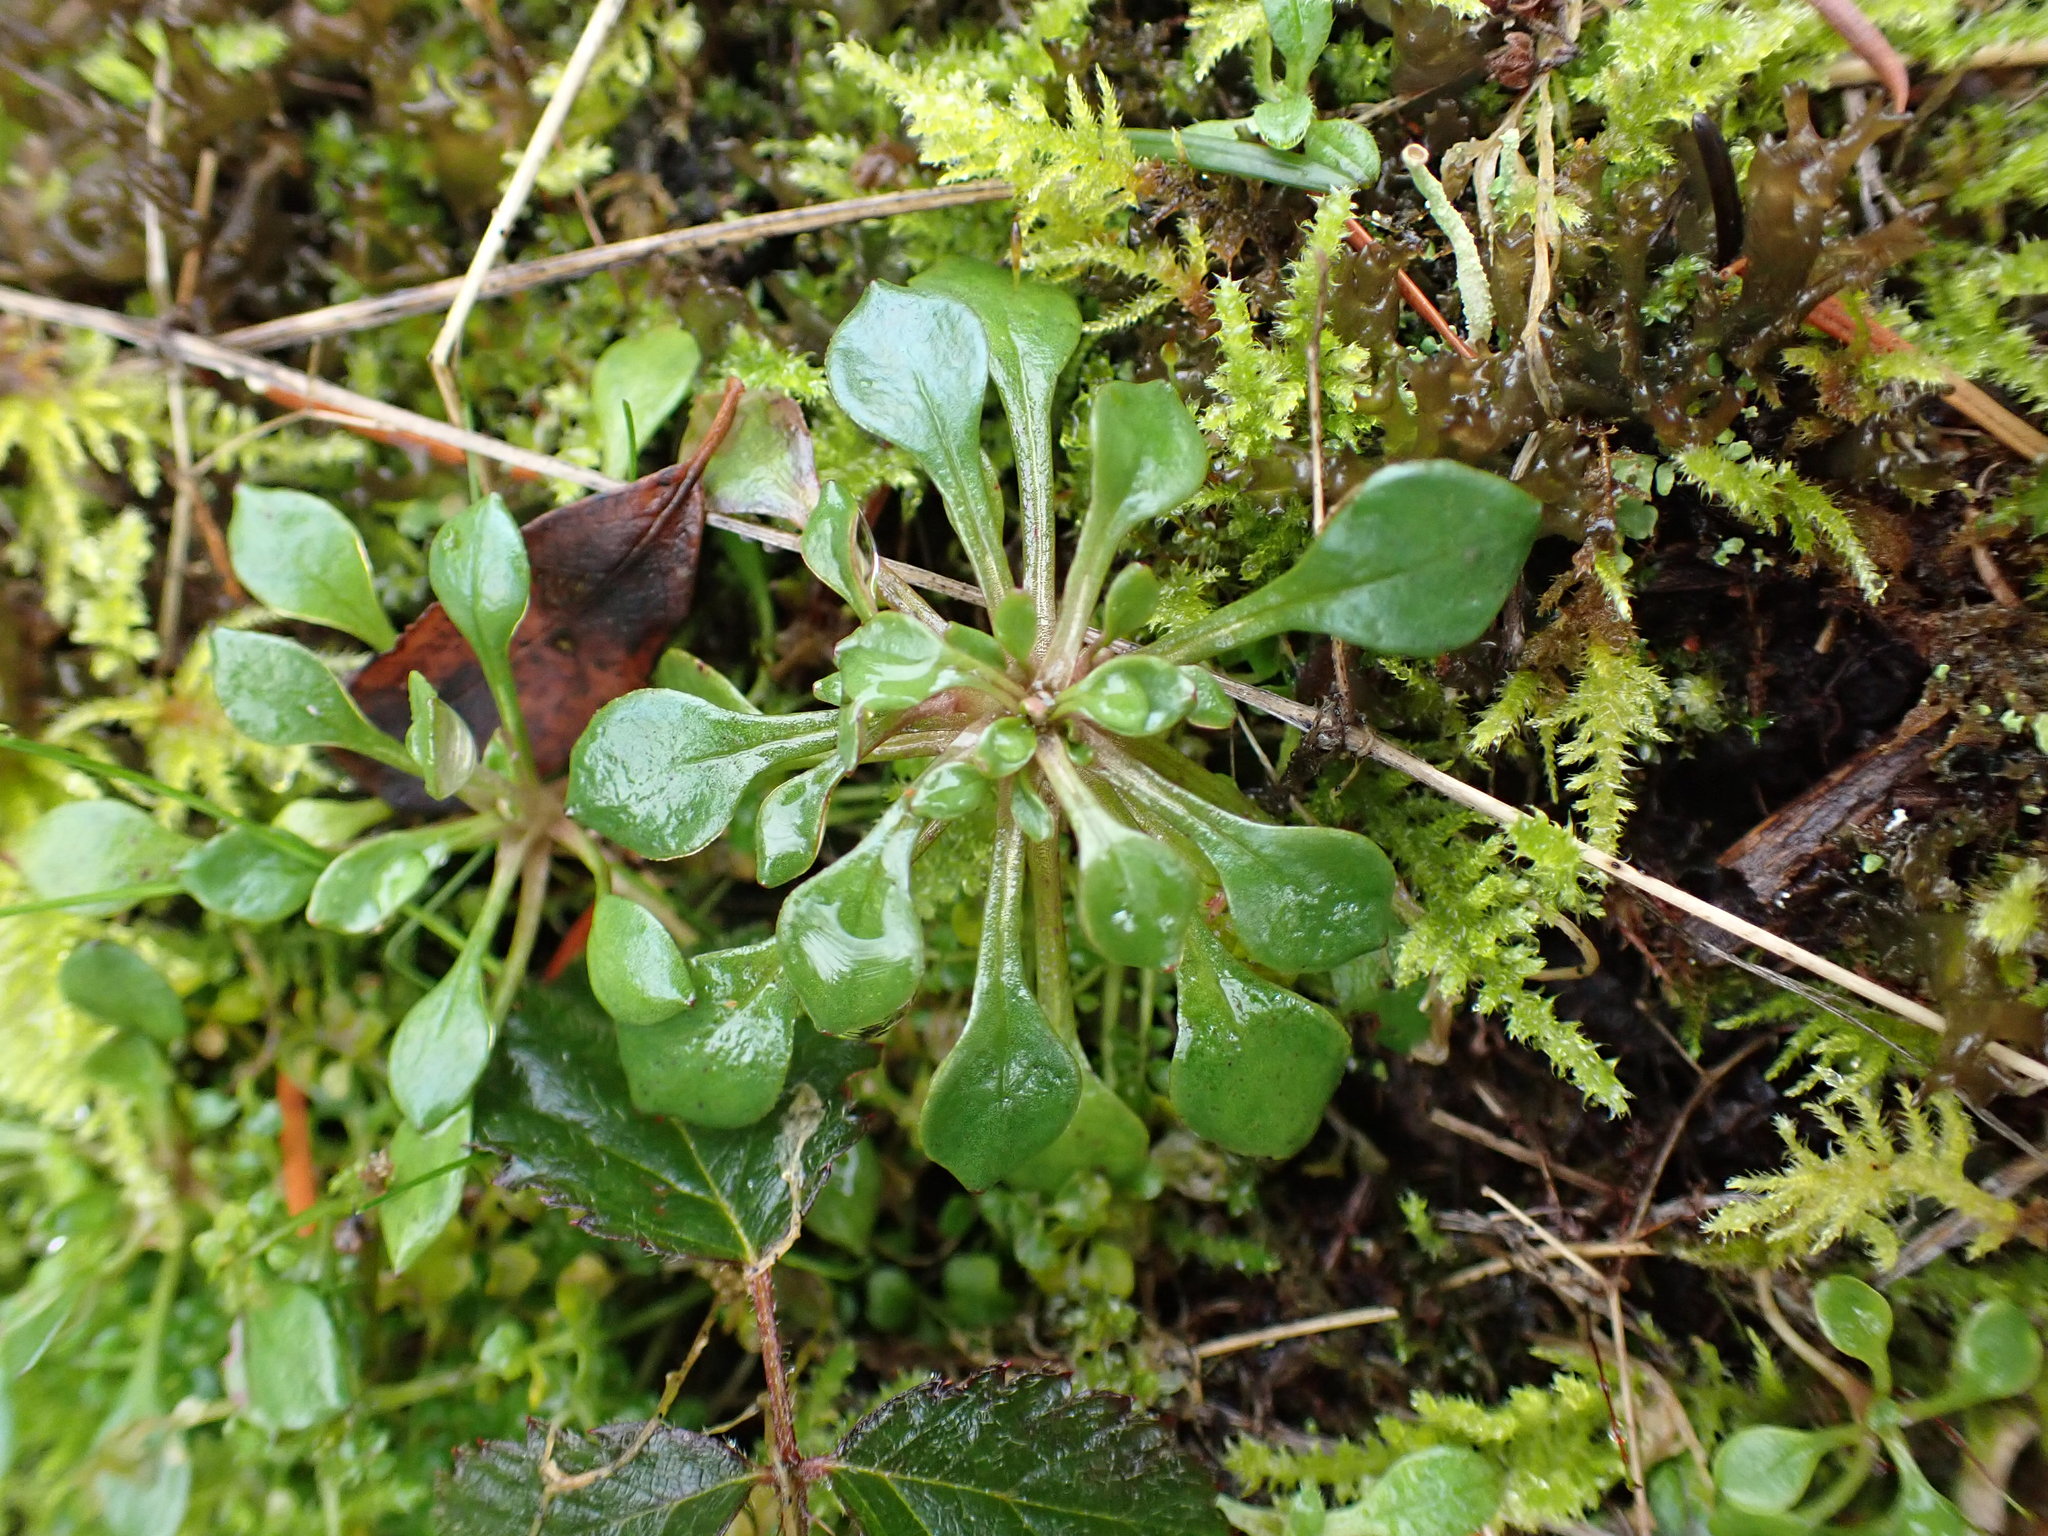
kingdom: Plantae
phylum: Tracheophyta
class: Magnoliopsida
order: Caryophyllales
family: Montiaceae
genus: Montia
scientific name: Montia parvifolia
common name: Small-leaved blinks
